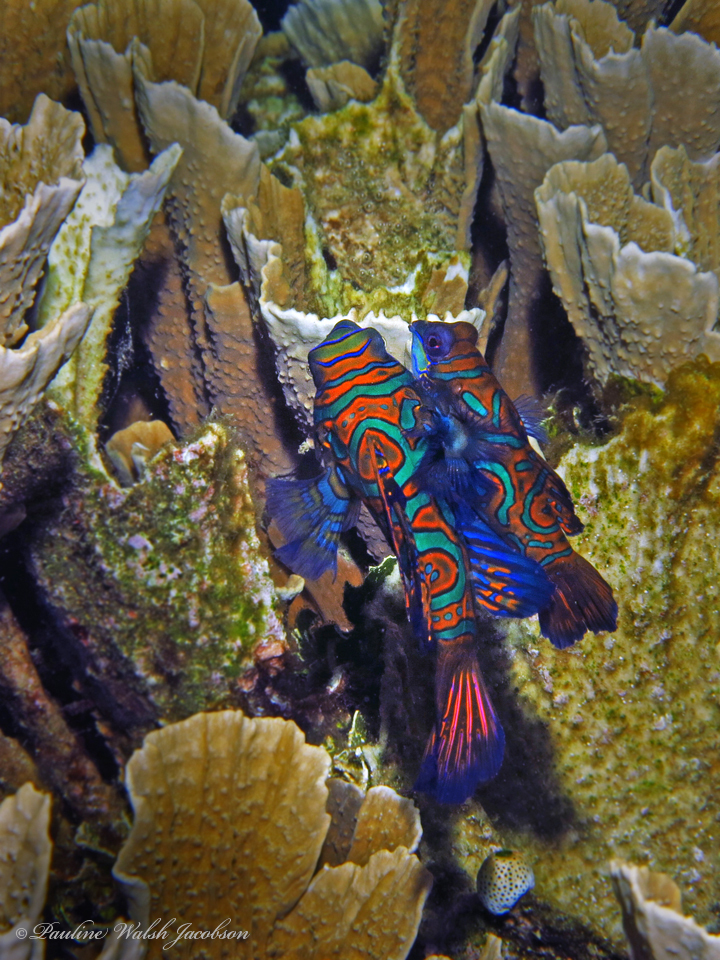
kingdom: Animalia
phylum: Chordata
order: Perciformes
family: Callionymidae
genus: Synchiropus
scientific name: Synchiropus splendidus
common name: Mandarinfish
